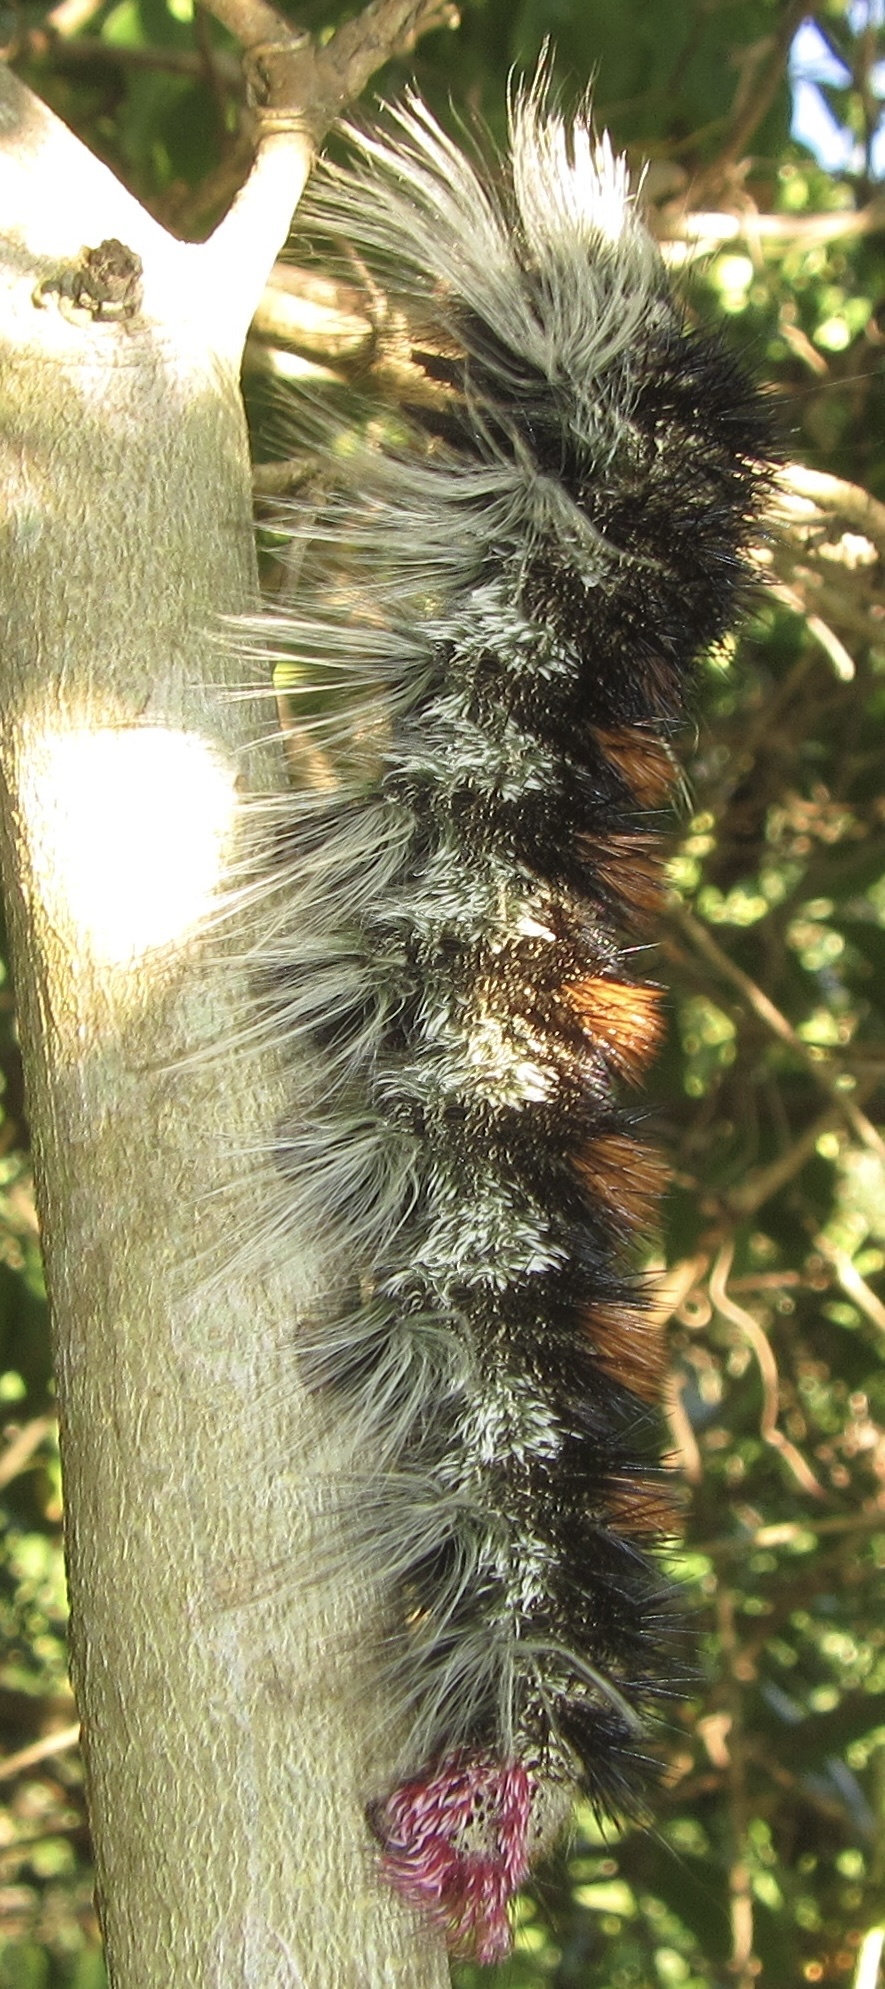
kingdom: Animalia
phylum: Arthropoda
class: Insecta
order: Lepidoptera
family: Lasiocampidae
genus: Catalebeda
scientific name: Catalebeda cuneilinea
